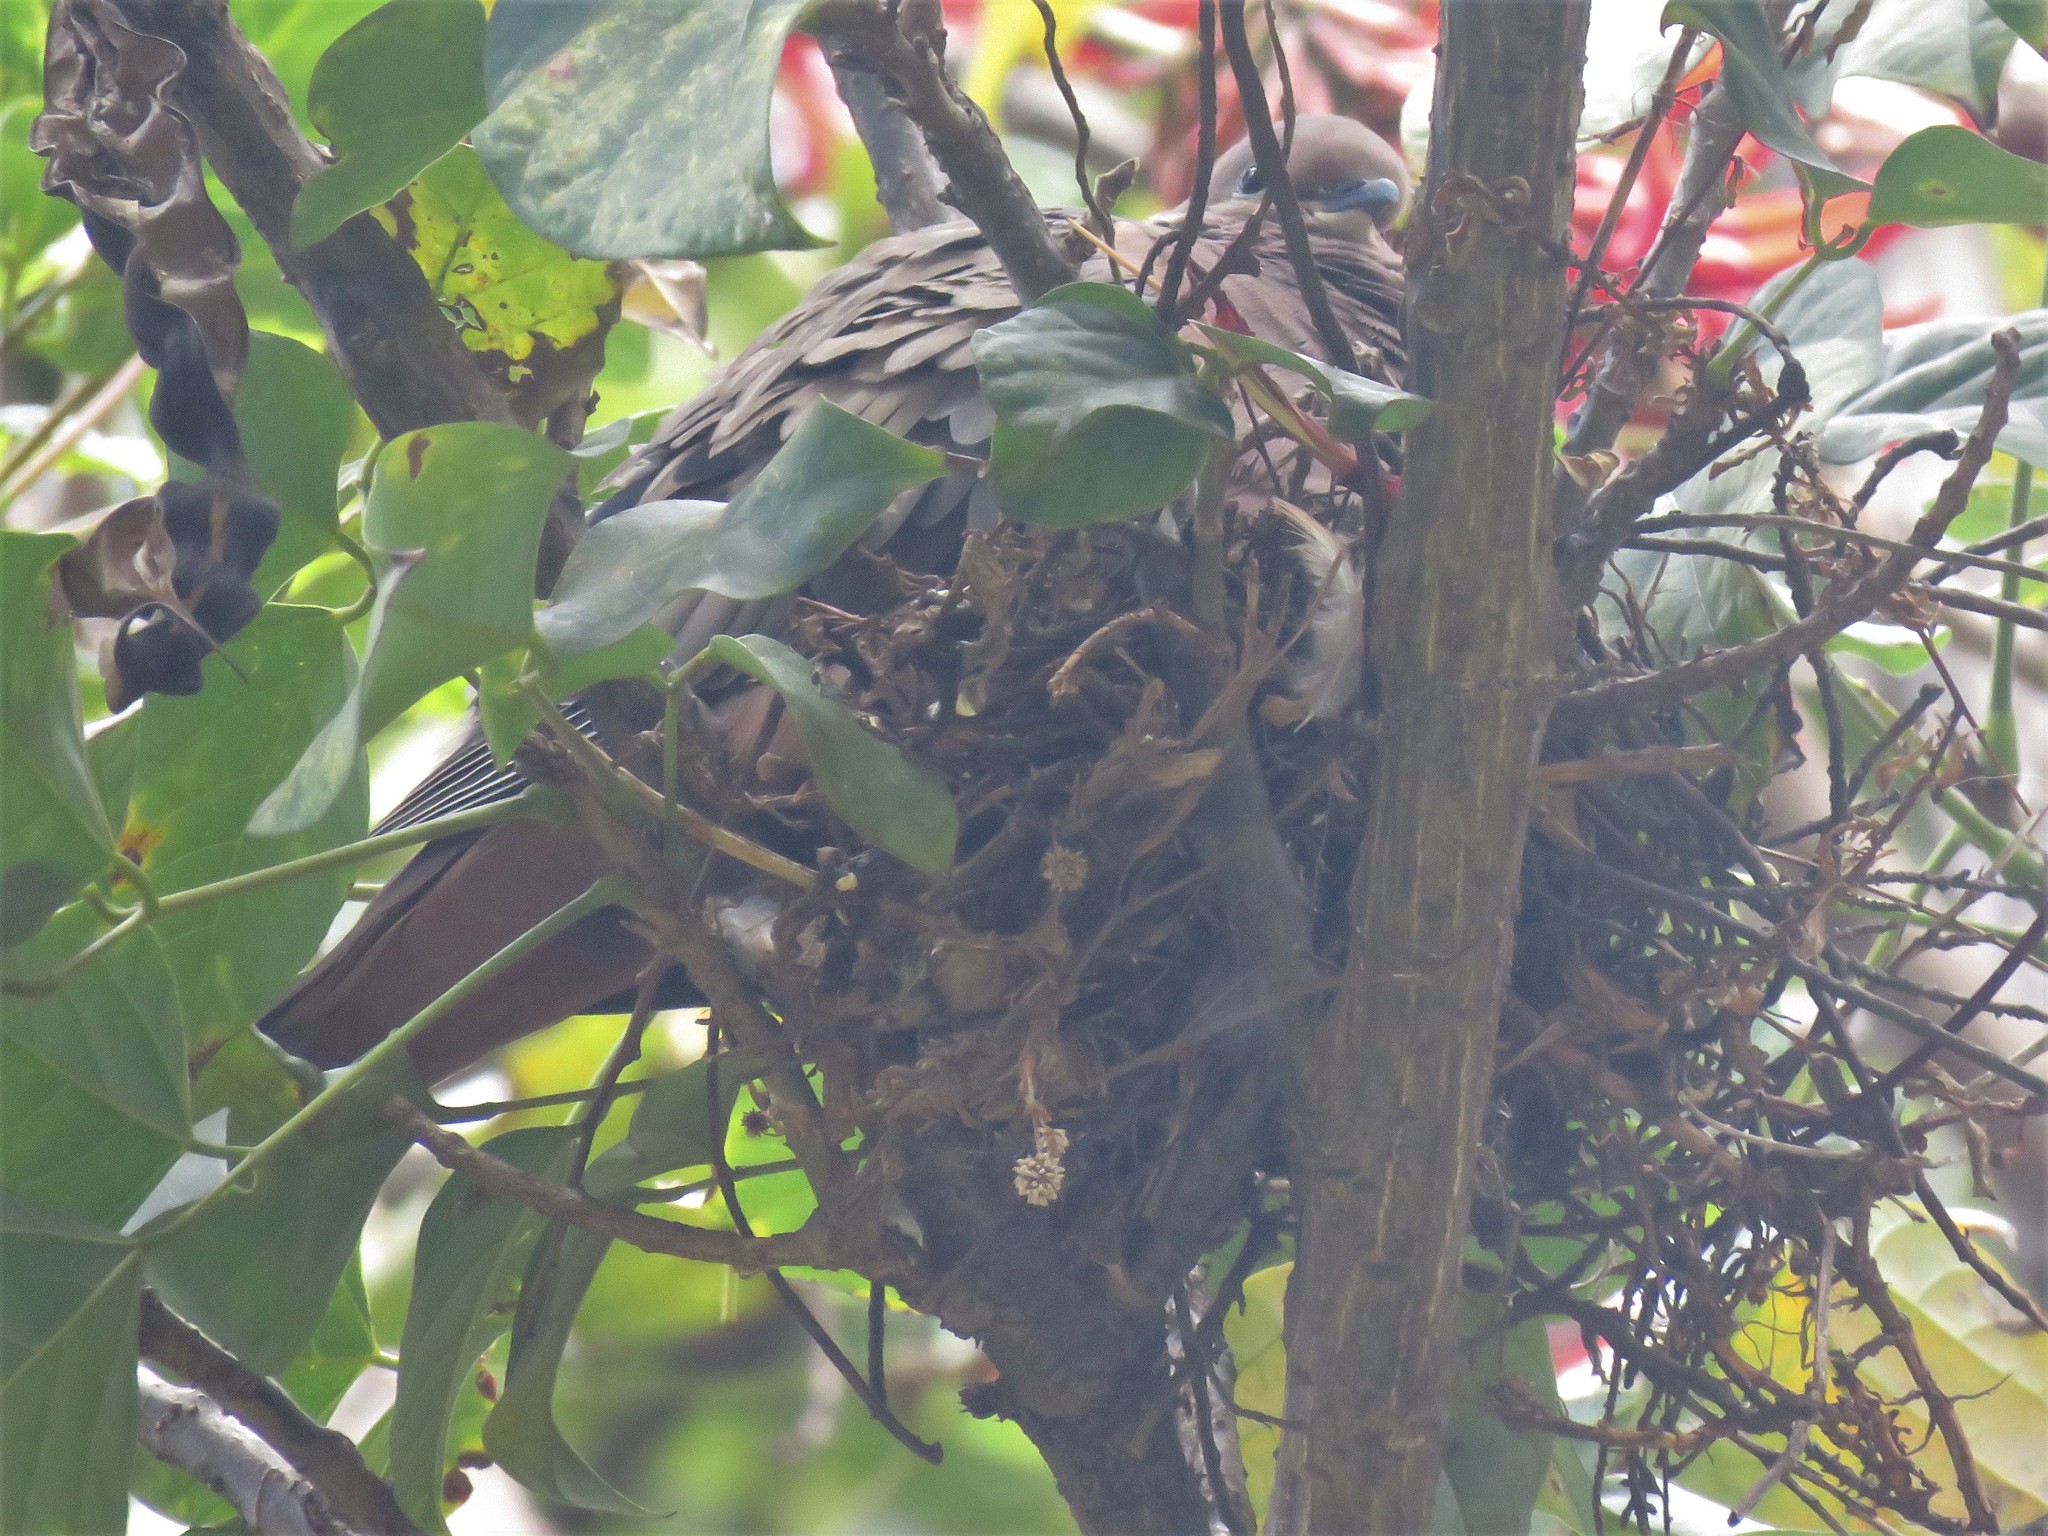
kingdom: Animalia
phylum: Chordata
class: Aves
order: Columbiformes
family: Columbidae
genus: Zenaida
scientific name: Zenaida auriculata
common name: Eared dove
